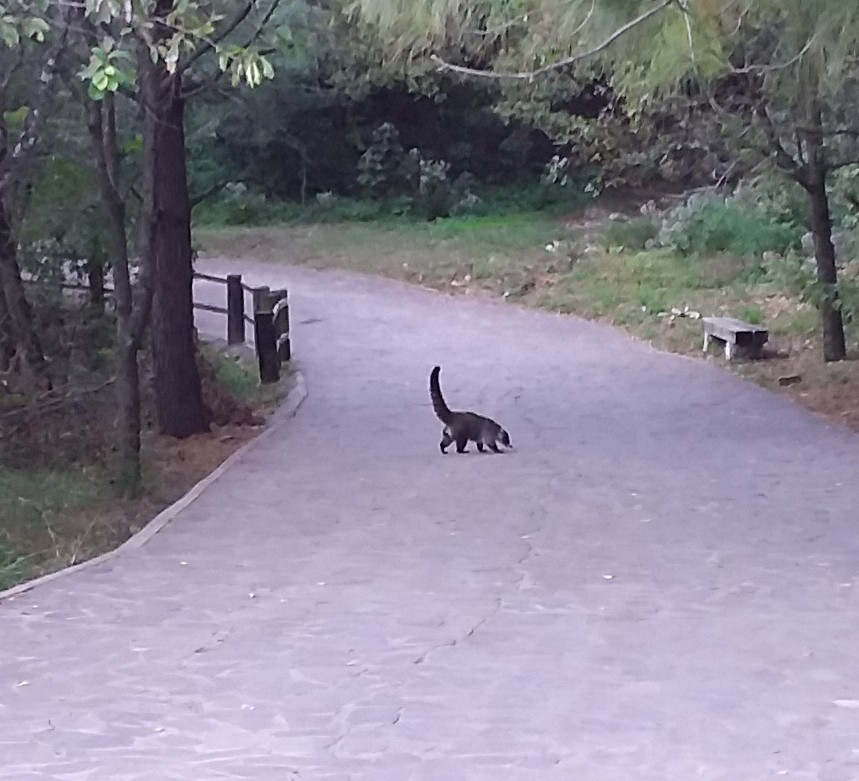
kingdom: Animalia
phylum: Chordata
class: Mammalia
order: Carnivora
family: Procyonidae
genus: Nasua
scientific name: Nasua narica
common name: White-nosed coati
